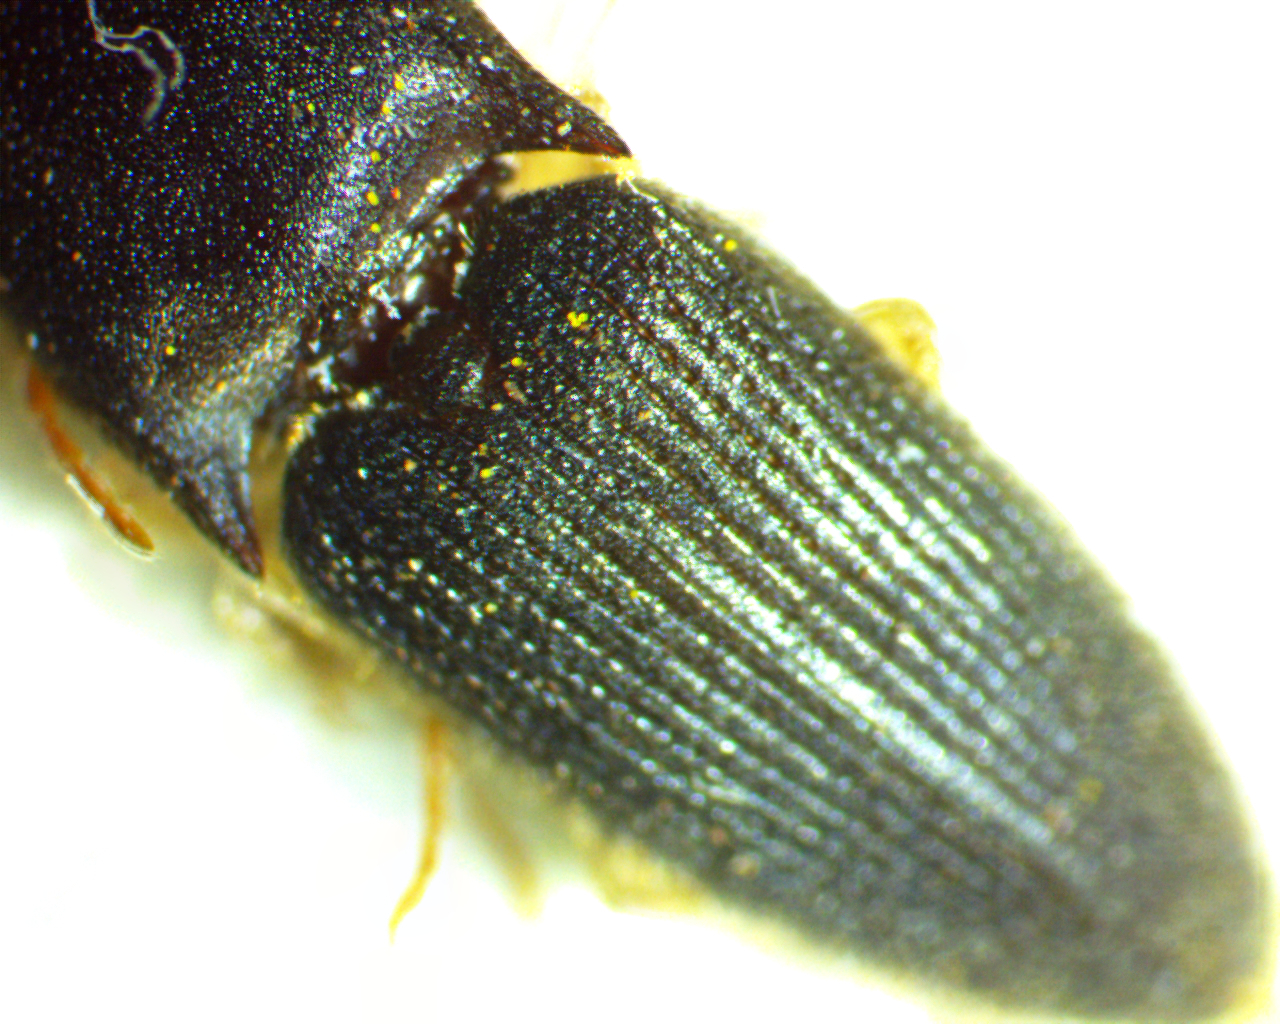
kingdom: Animalia
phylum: Arthropoda
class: Insecta
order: Coleoptera
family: Elateridae
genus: Heteroderes
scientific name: Heteroderes amplicollis
